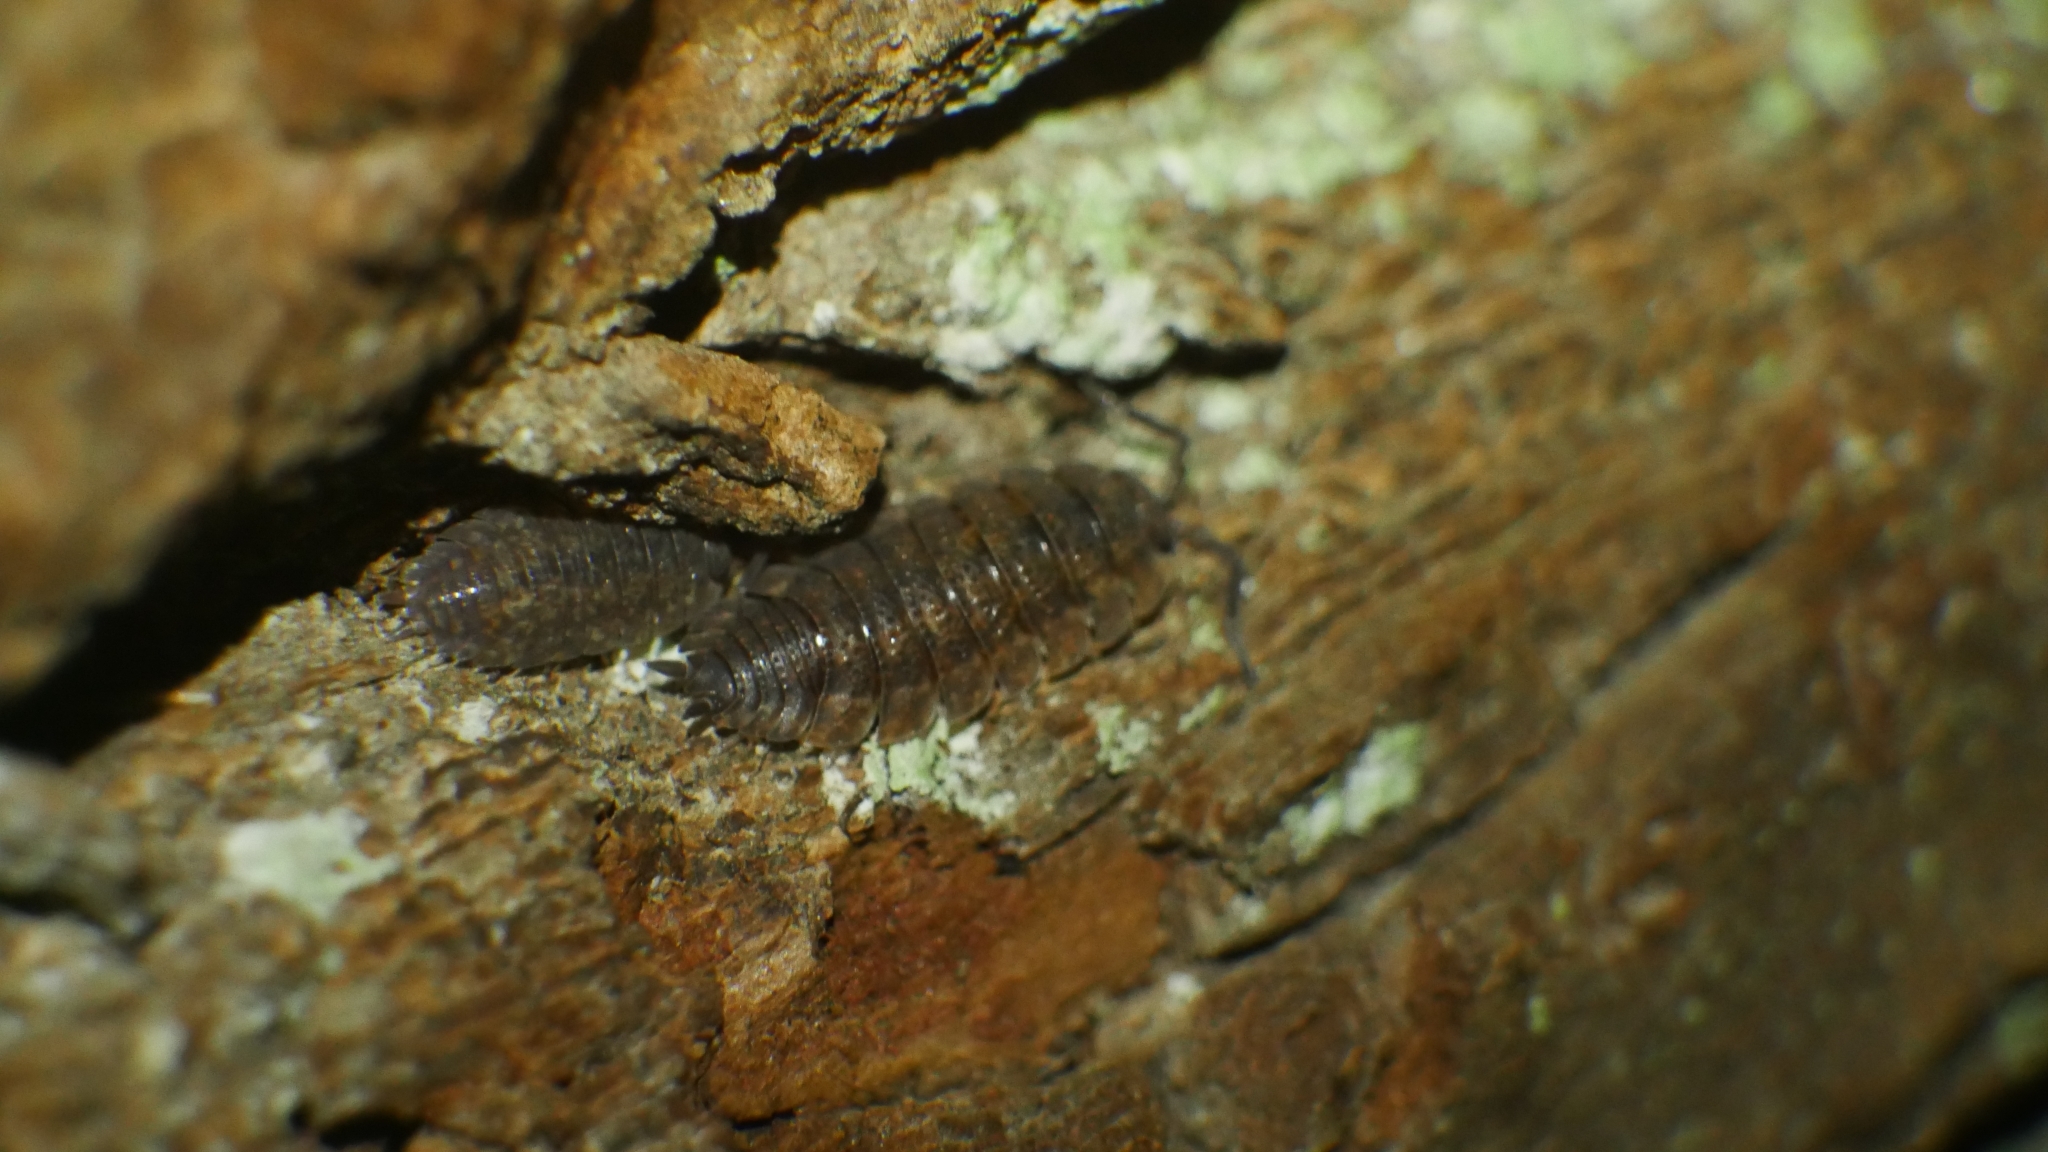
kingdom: Animalia
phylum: Arthropoda
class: Malacostraca
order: Isopoda
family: Porcellionidae
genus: Porcellio
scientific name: Porcellio scaber
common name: Common rough woodlouse
